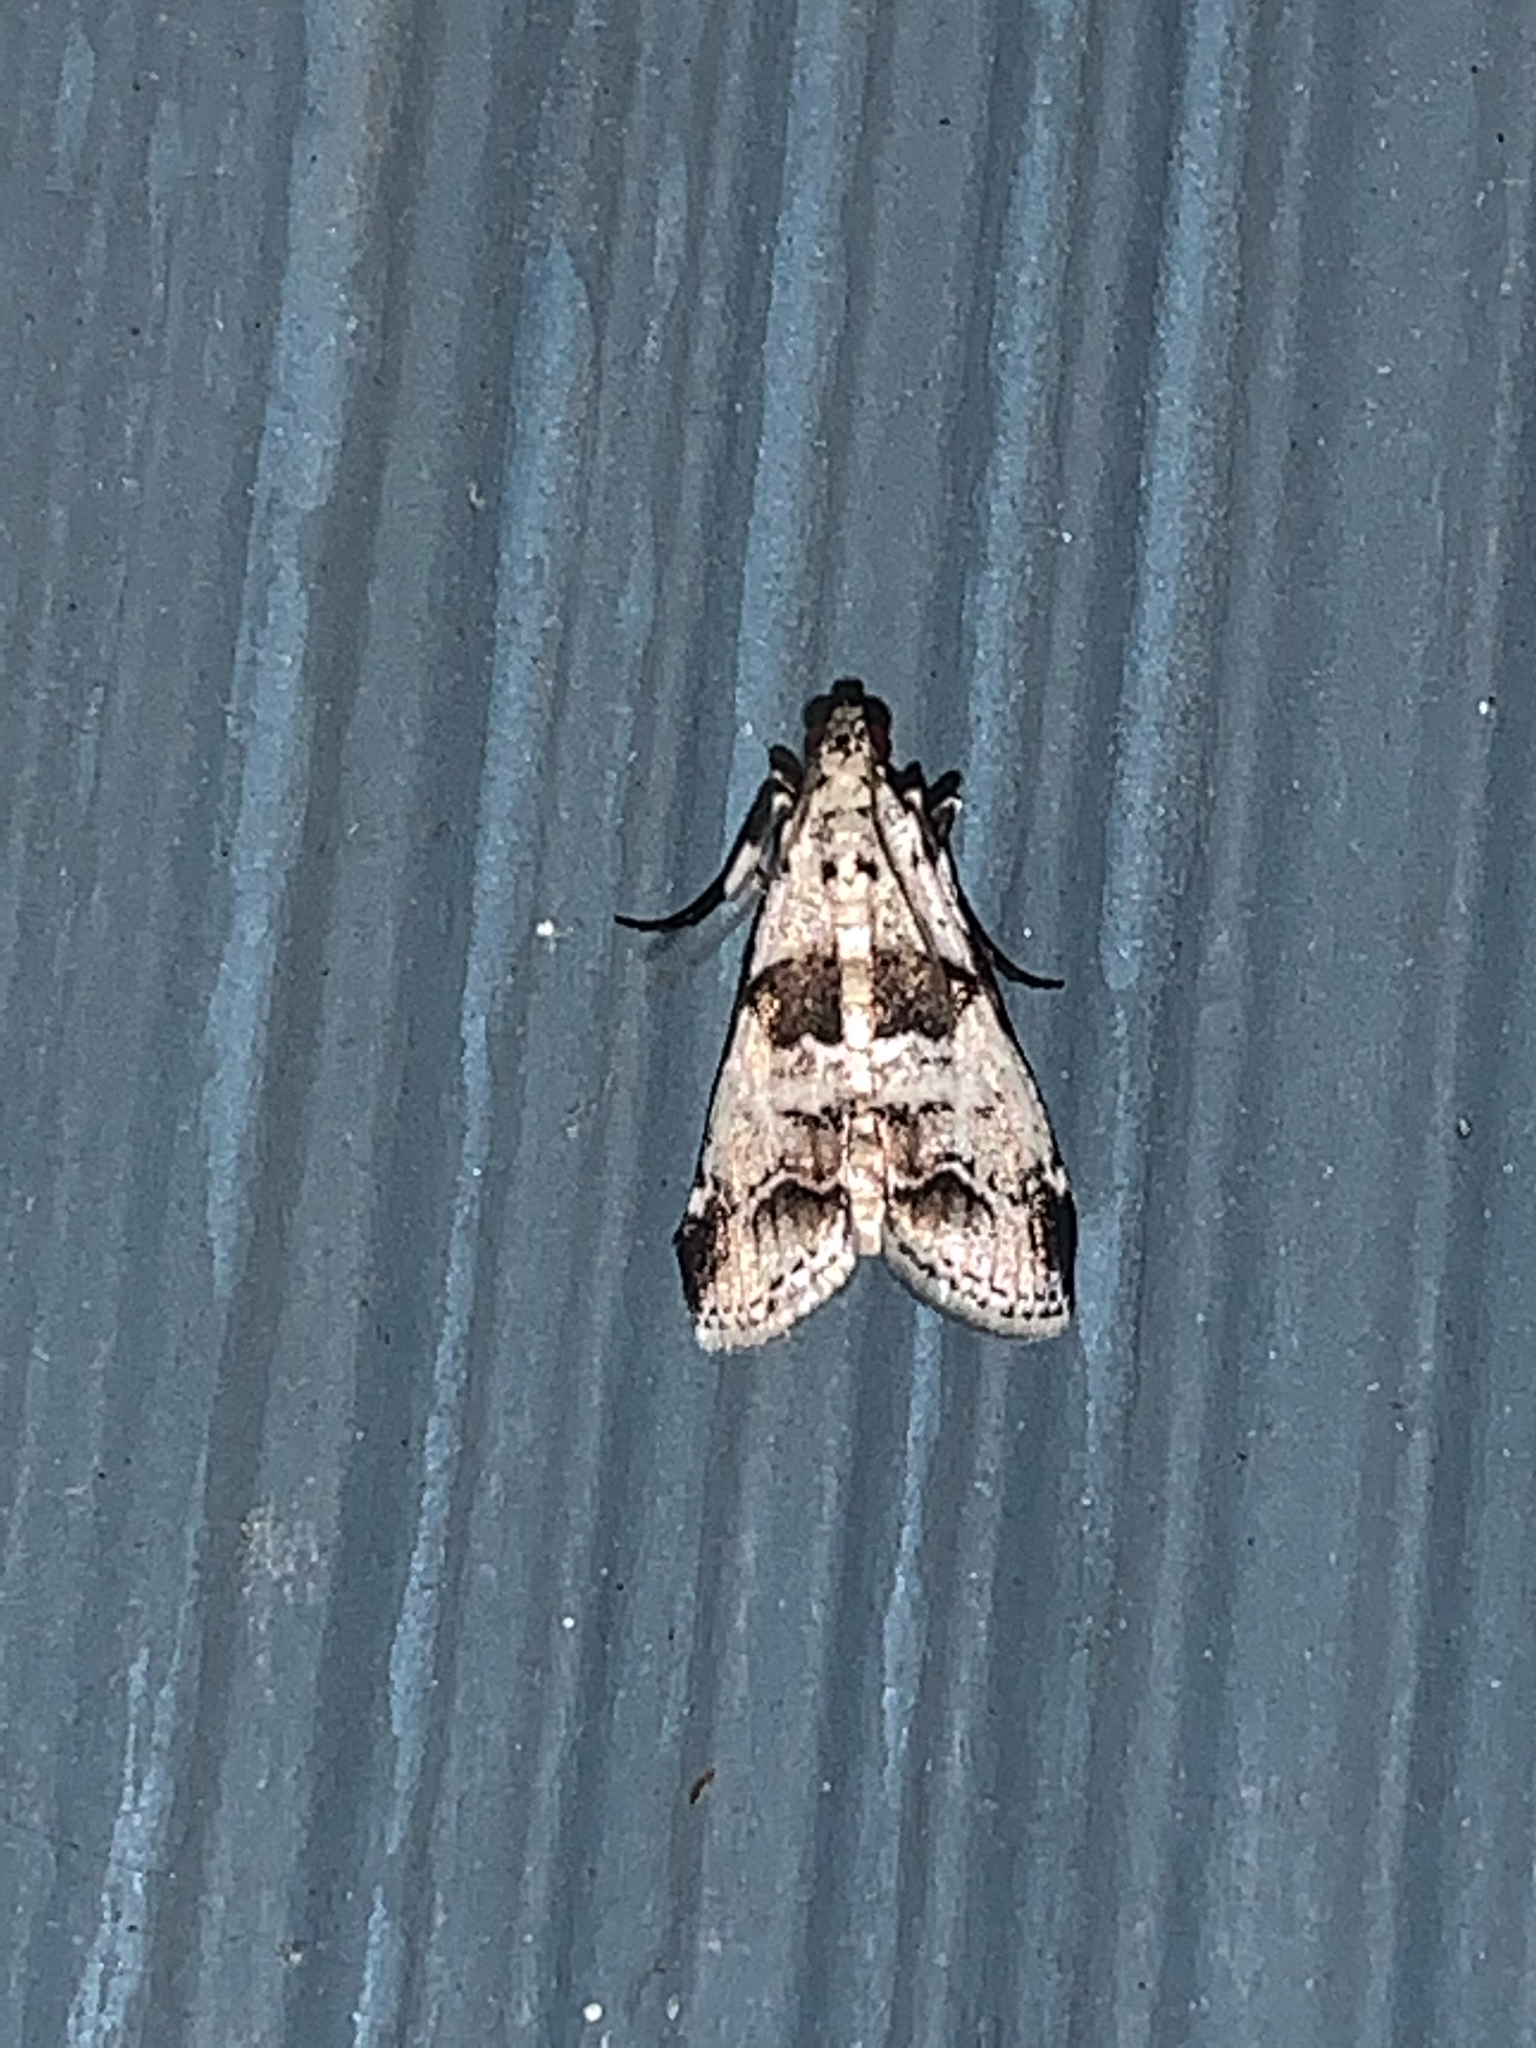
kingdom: Animalia
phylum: Arthropoda
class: Insecta
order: Lepidoptera
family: Pyralidae
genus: Tallula
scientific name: Tallula atrifascialis
